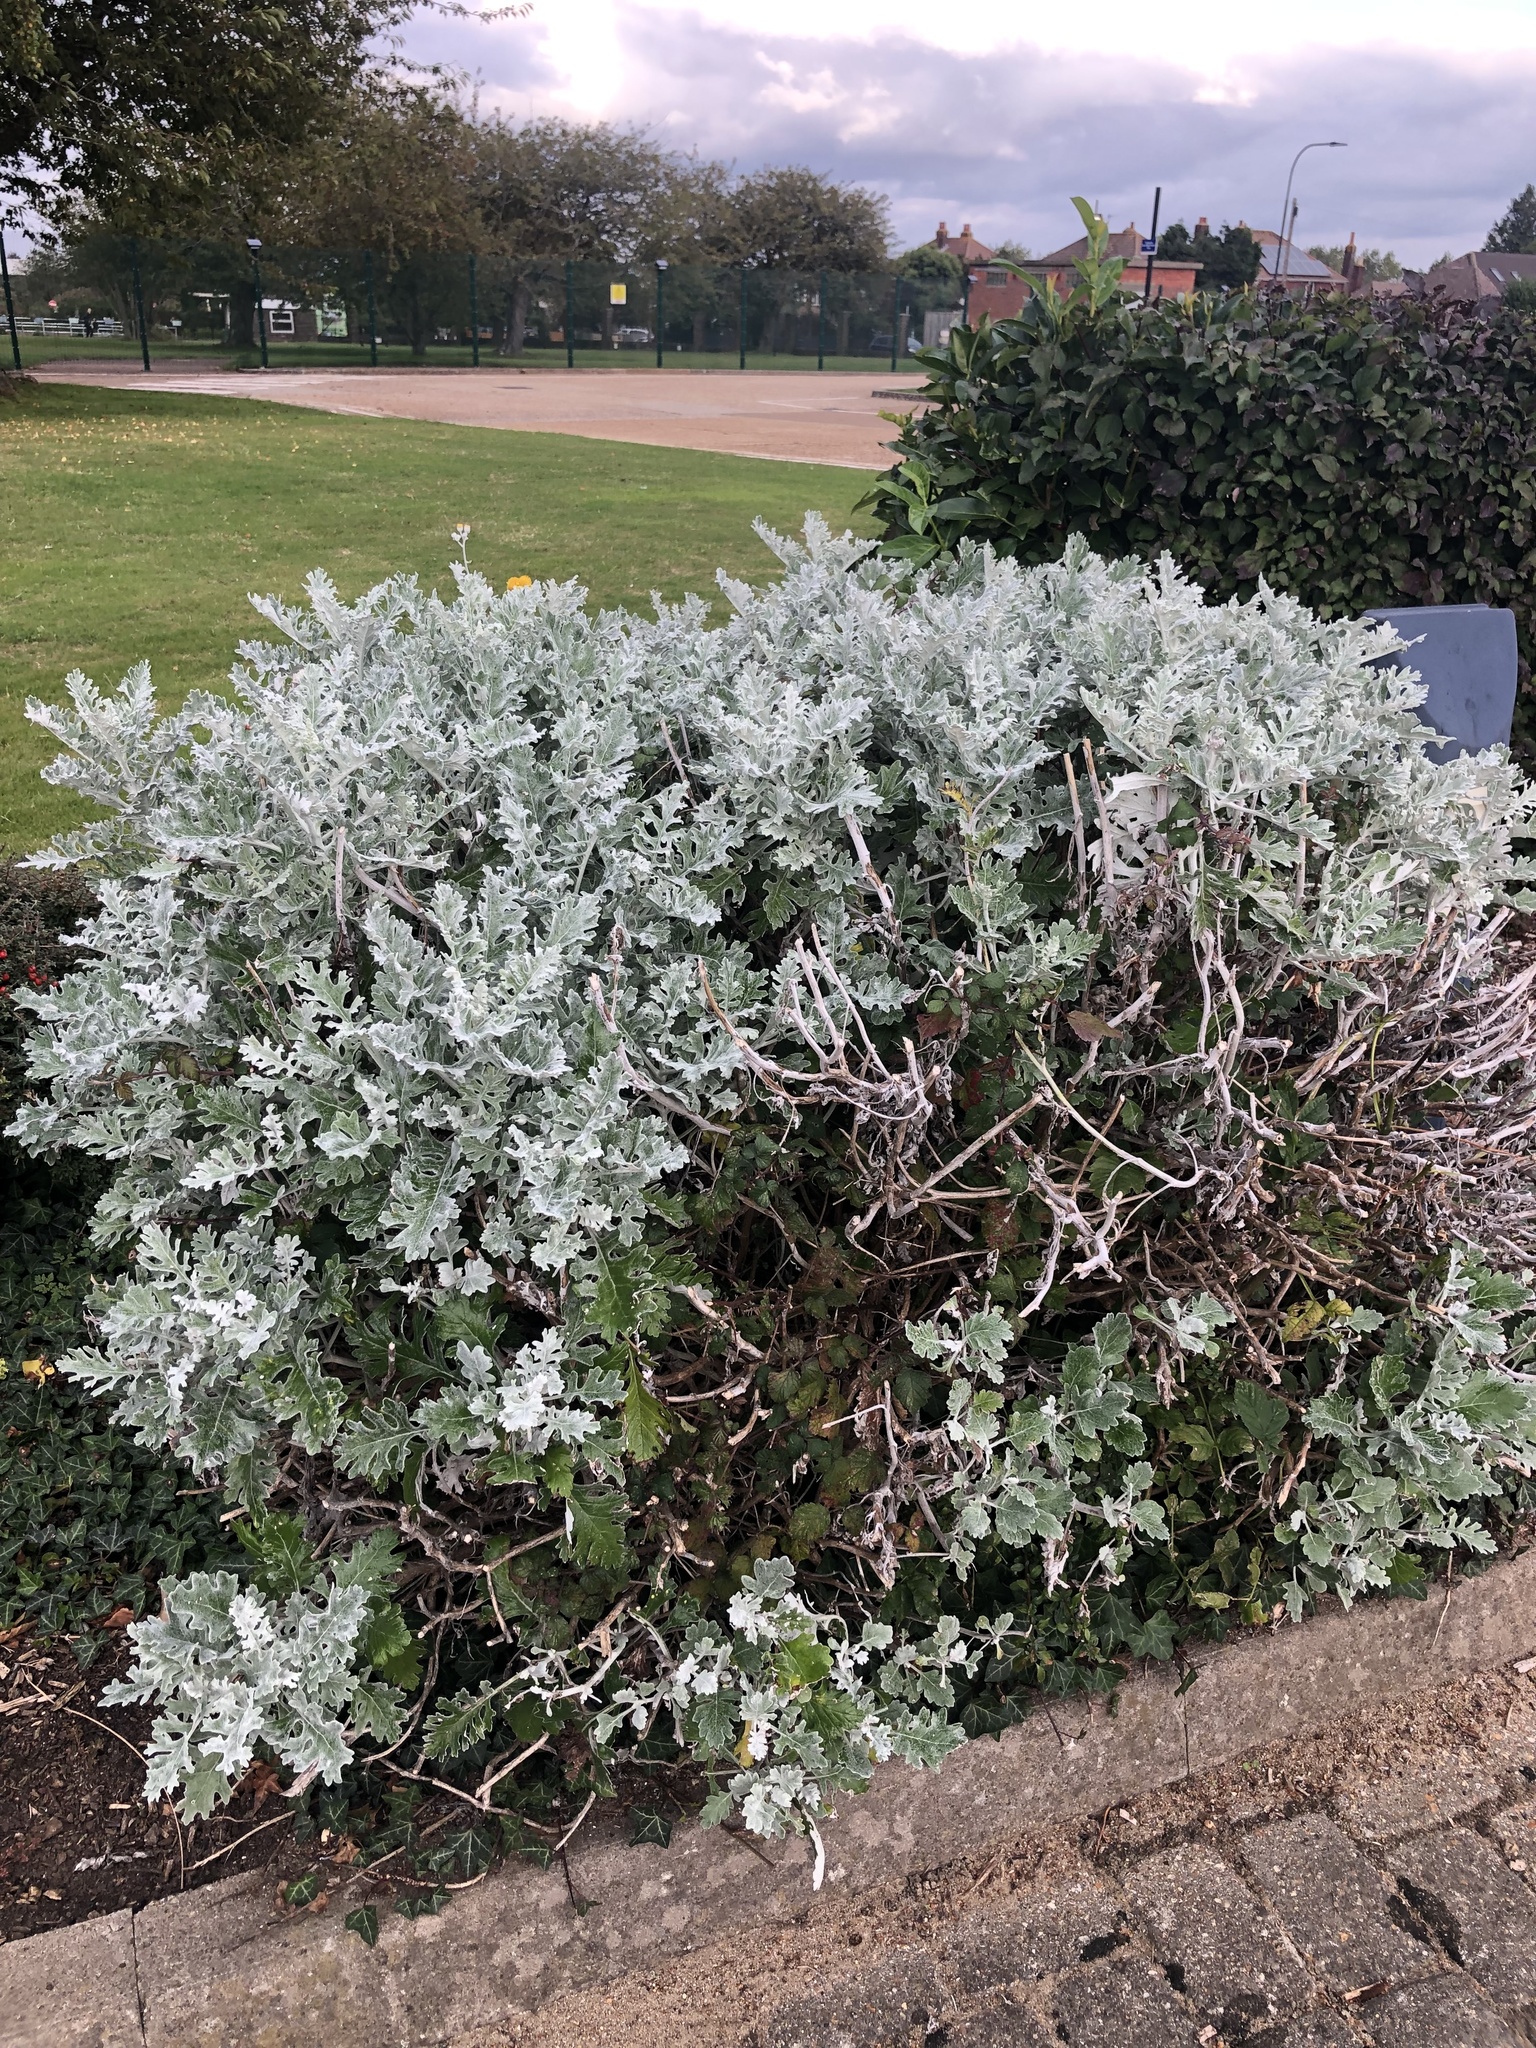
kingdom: Plantae
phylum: Tracheophyta
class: Magnoliopsida
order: Asterales
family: Asteraceae
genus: Jacobaea
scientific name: Jacobaea maritima
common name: Silver ragwort
